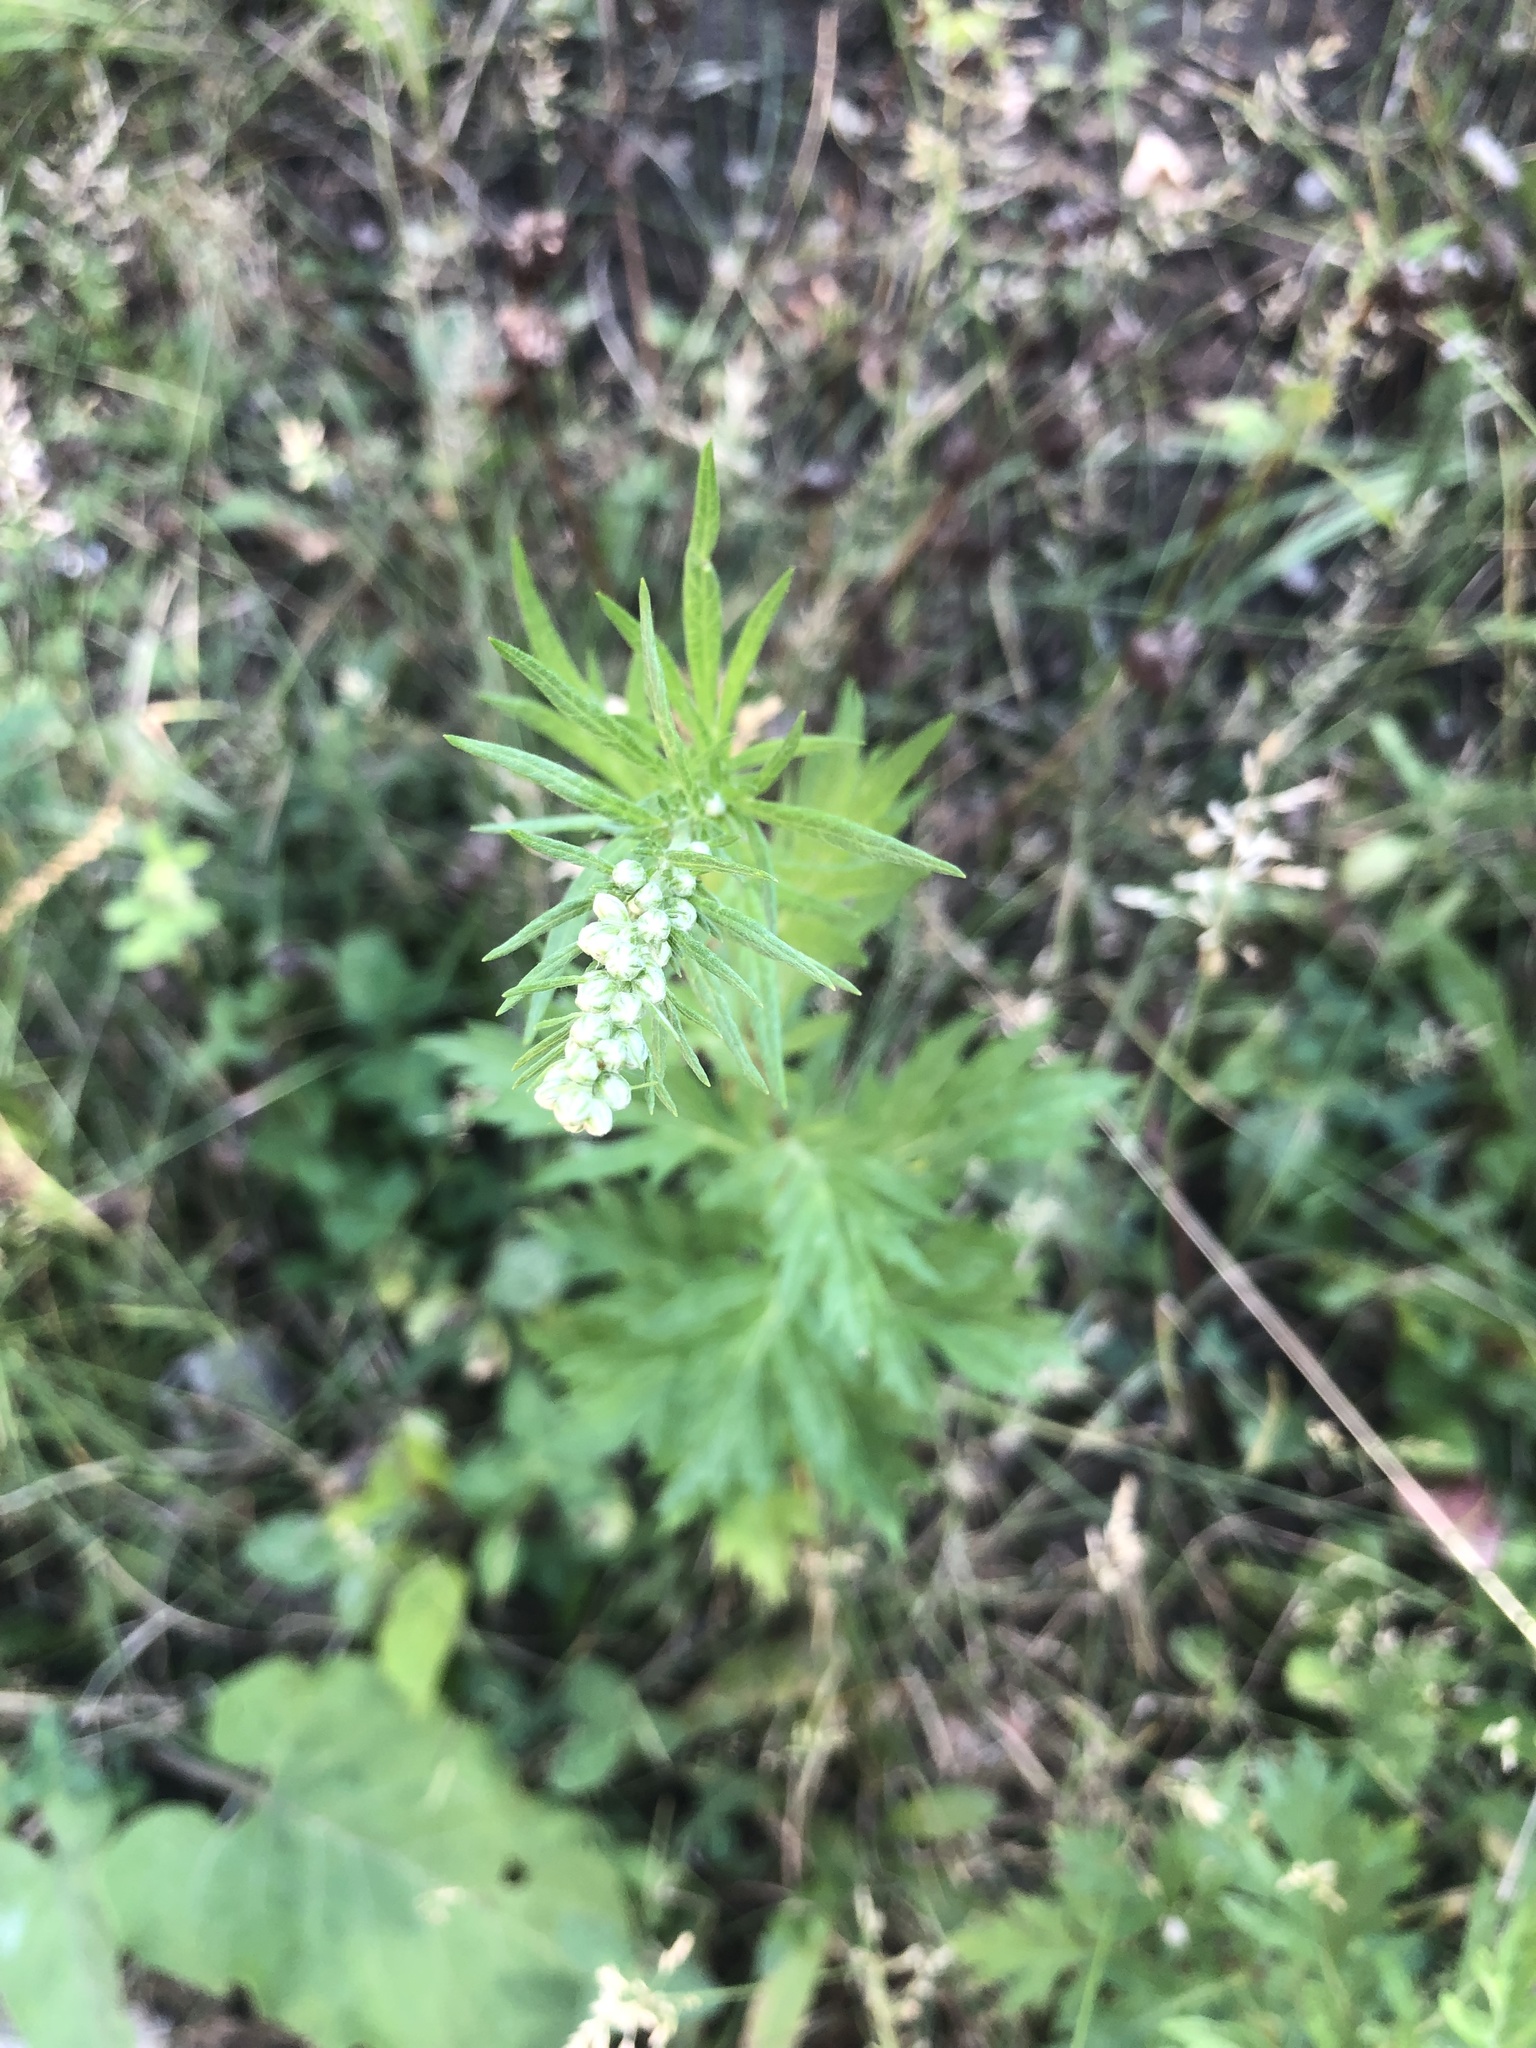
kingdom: Plantae
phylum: Tracheophyta
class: Magnoliopsida
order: Asterales
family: Asteraceae
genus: Artemisia
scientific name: Artemisia vulgaris
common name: Mugwort
